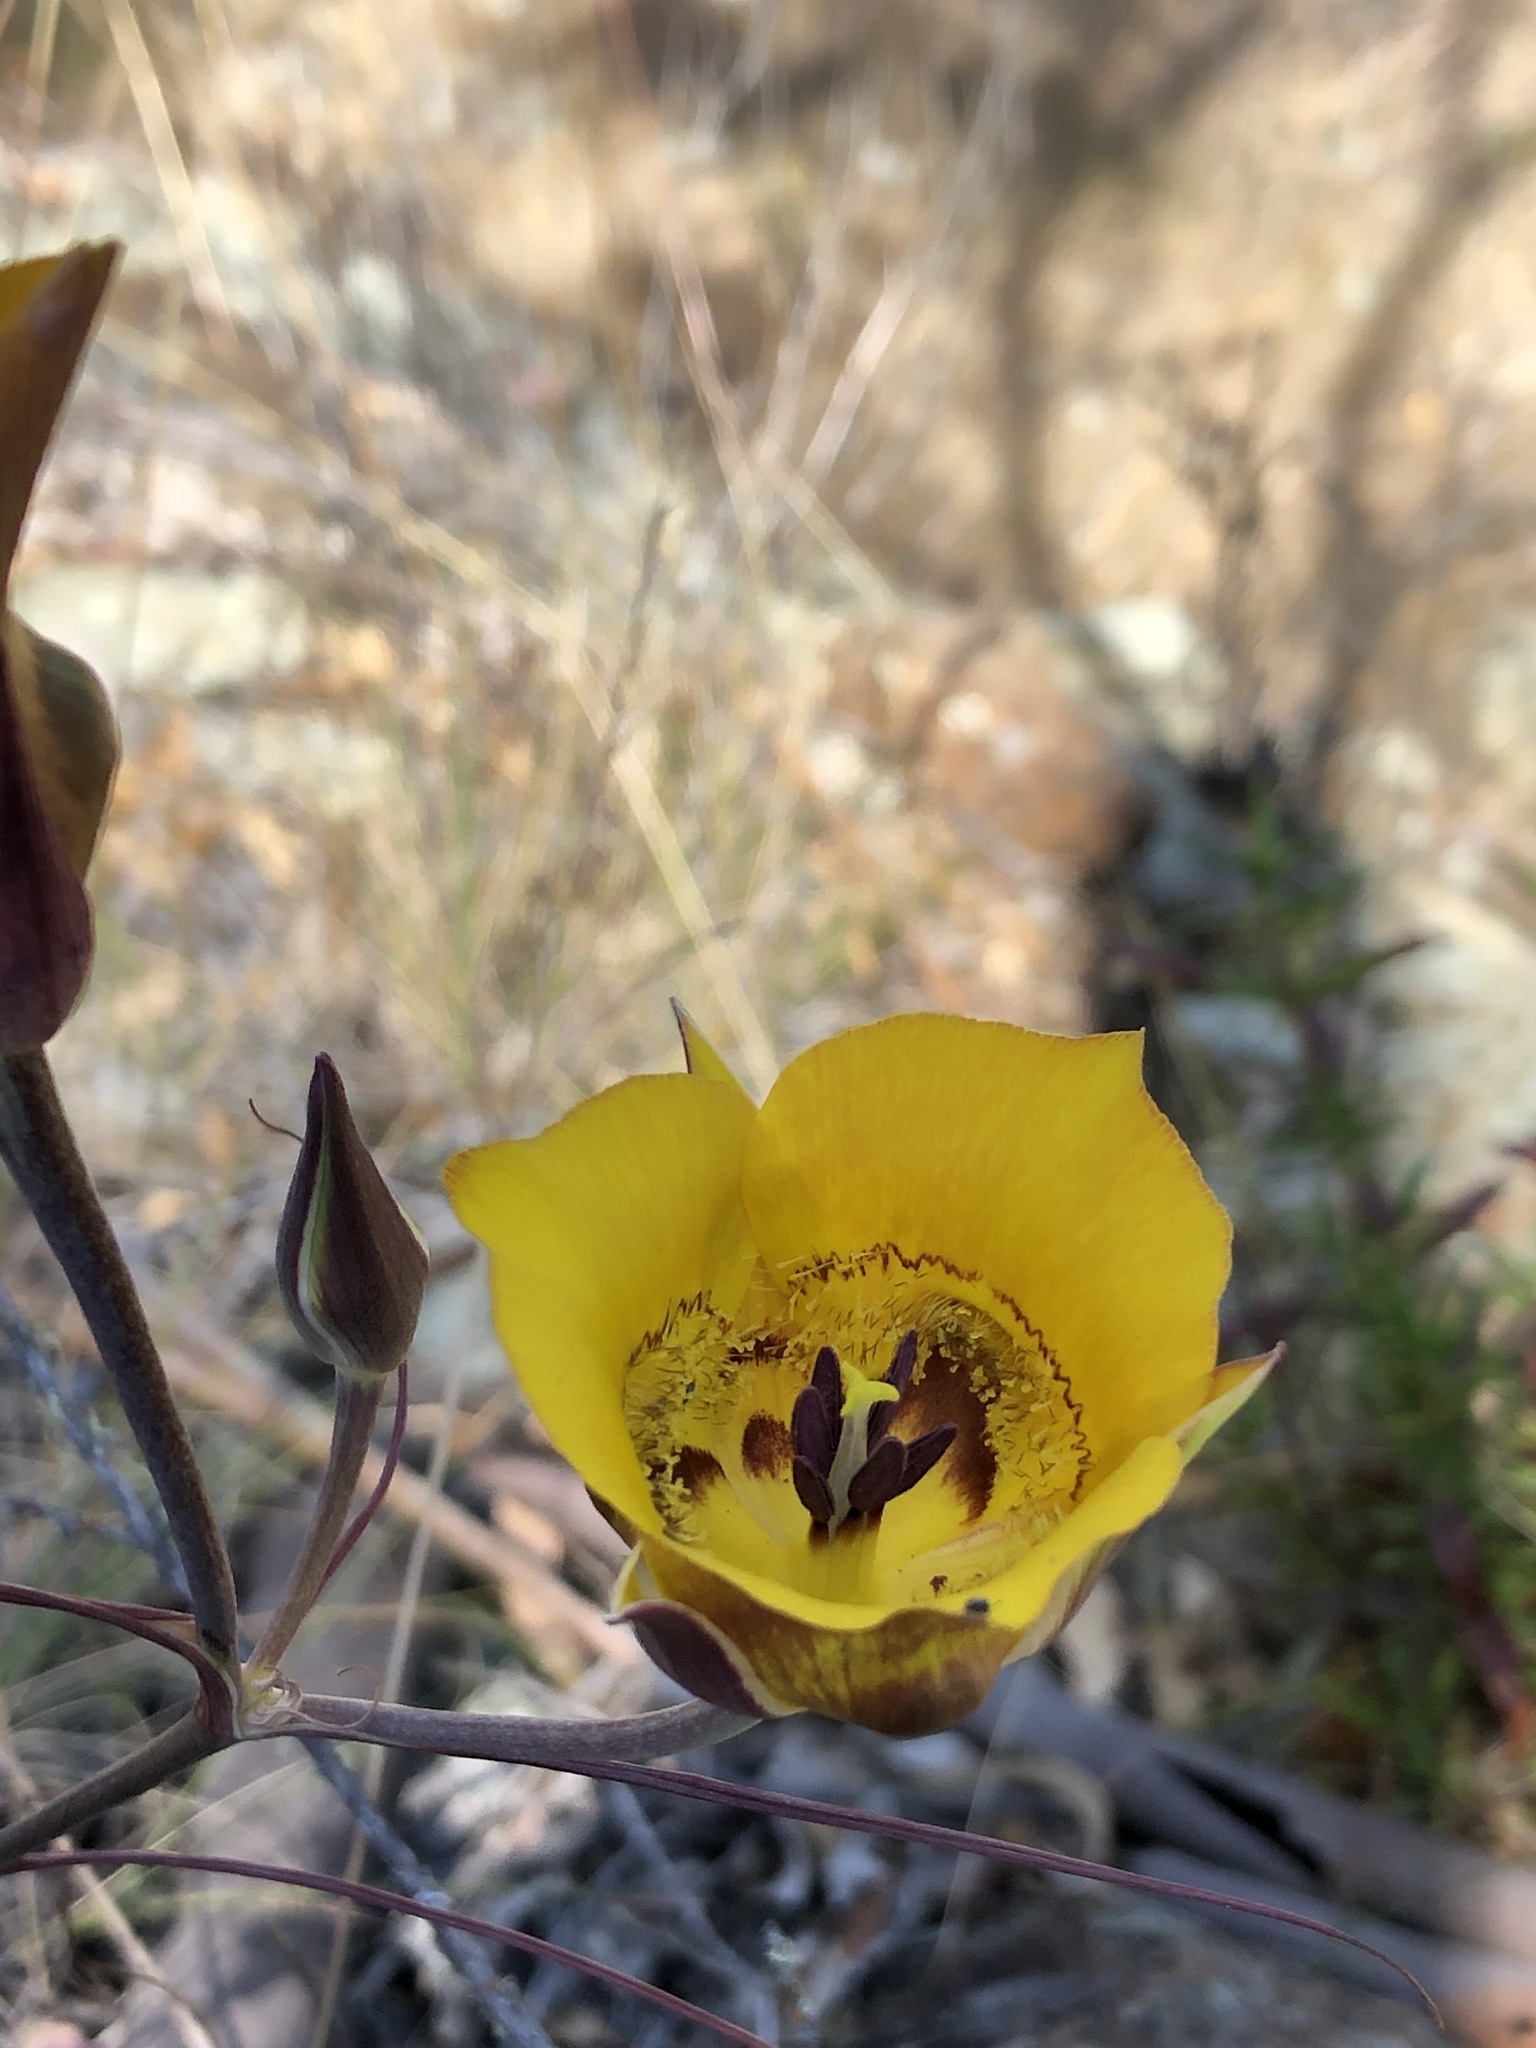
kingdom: Plantae
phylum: Tracheophyta
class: Liliopsida
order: Liliales
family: Liliaceae
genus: Calochortus
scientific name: Calochortus clavatus
